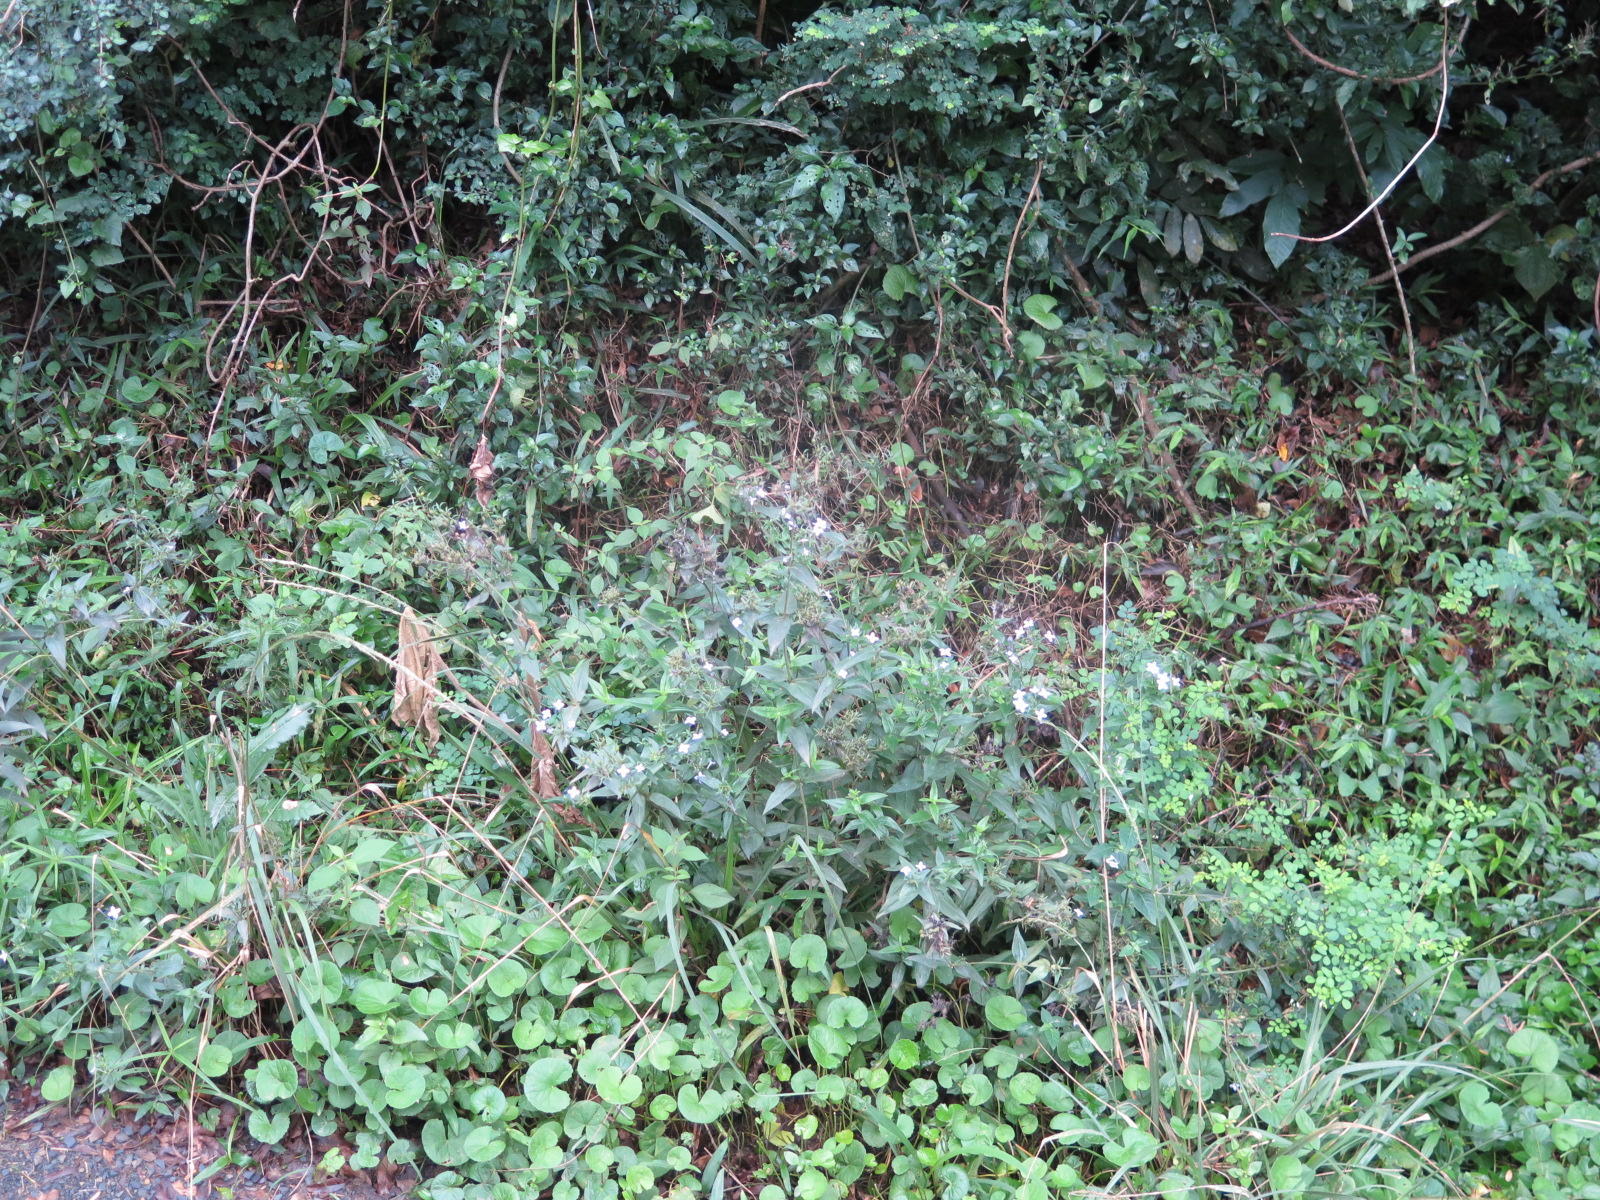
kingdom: Plantae
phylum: Tracheophyta
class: Magnoliopsida
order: Gentianales
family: Rubiaceae
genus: Conostomium
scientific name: Conostomium natalense
